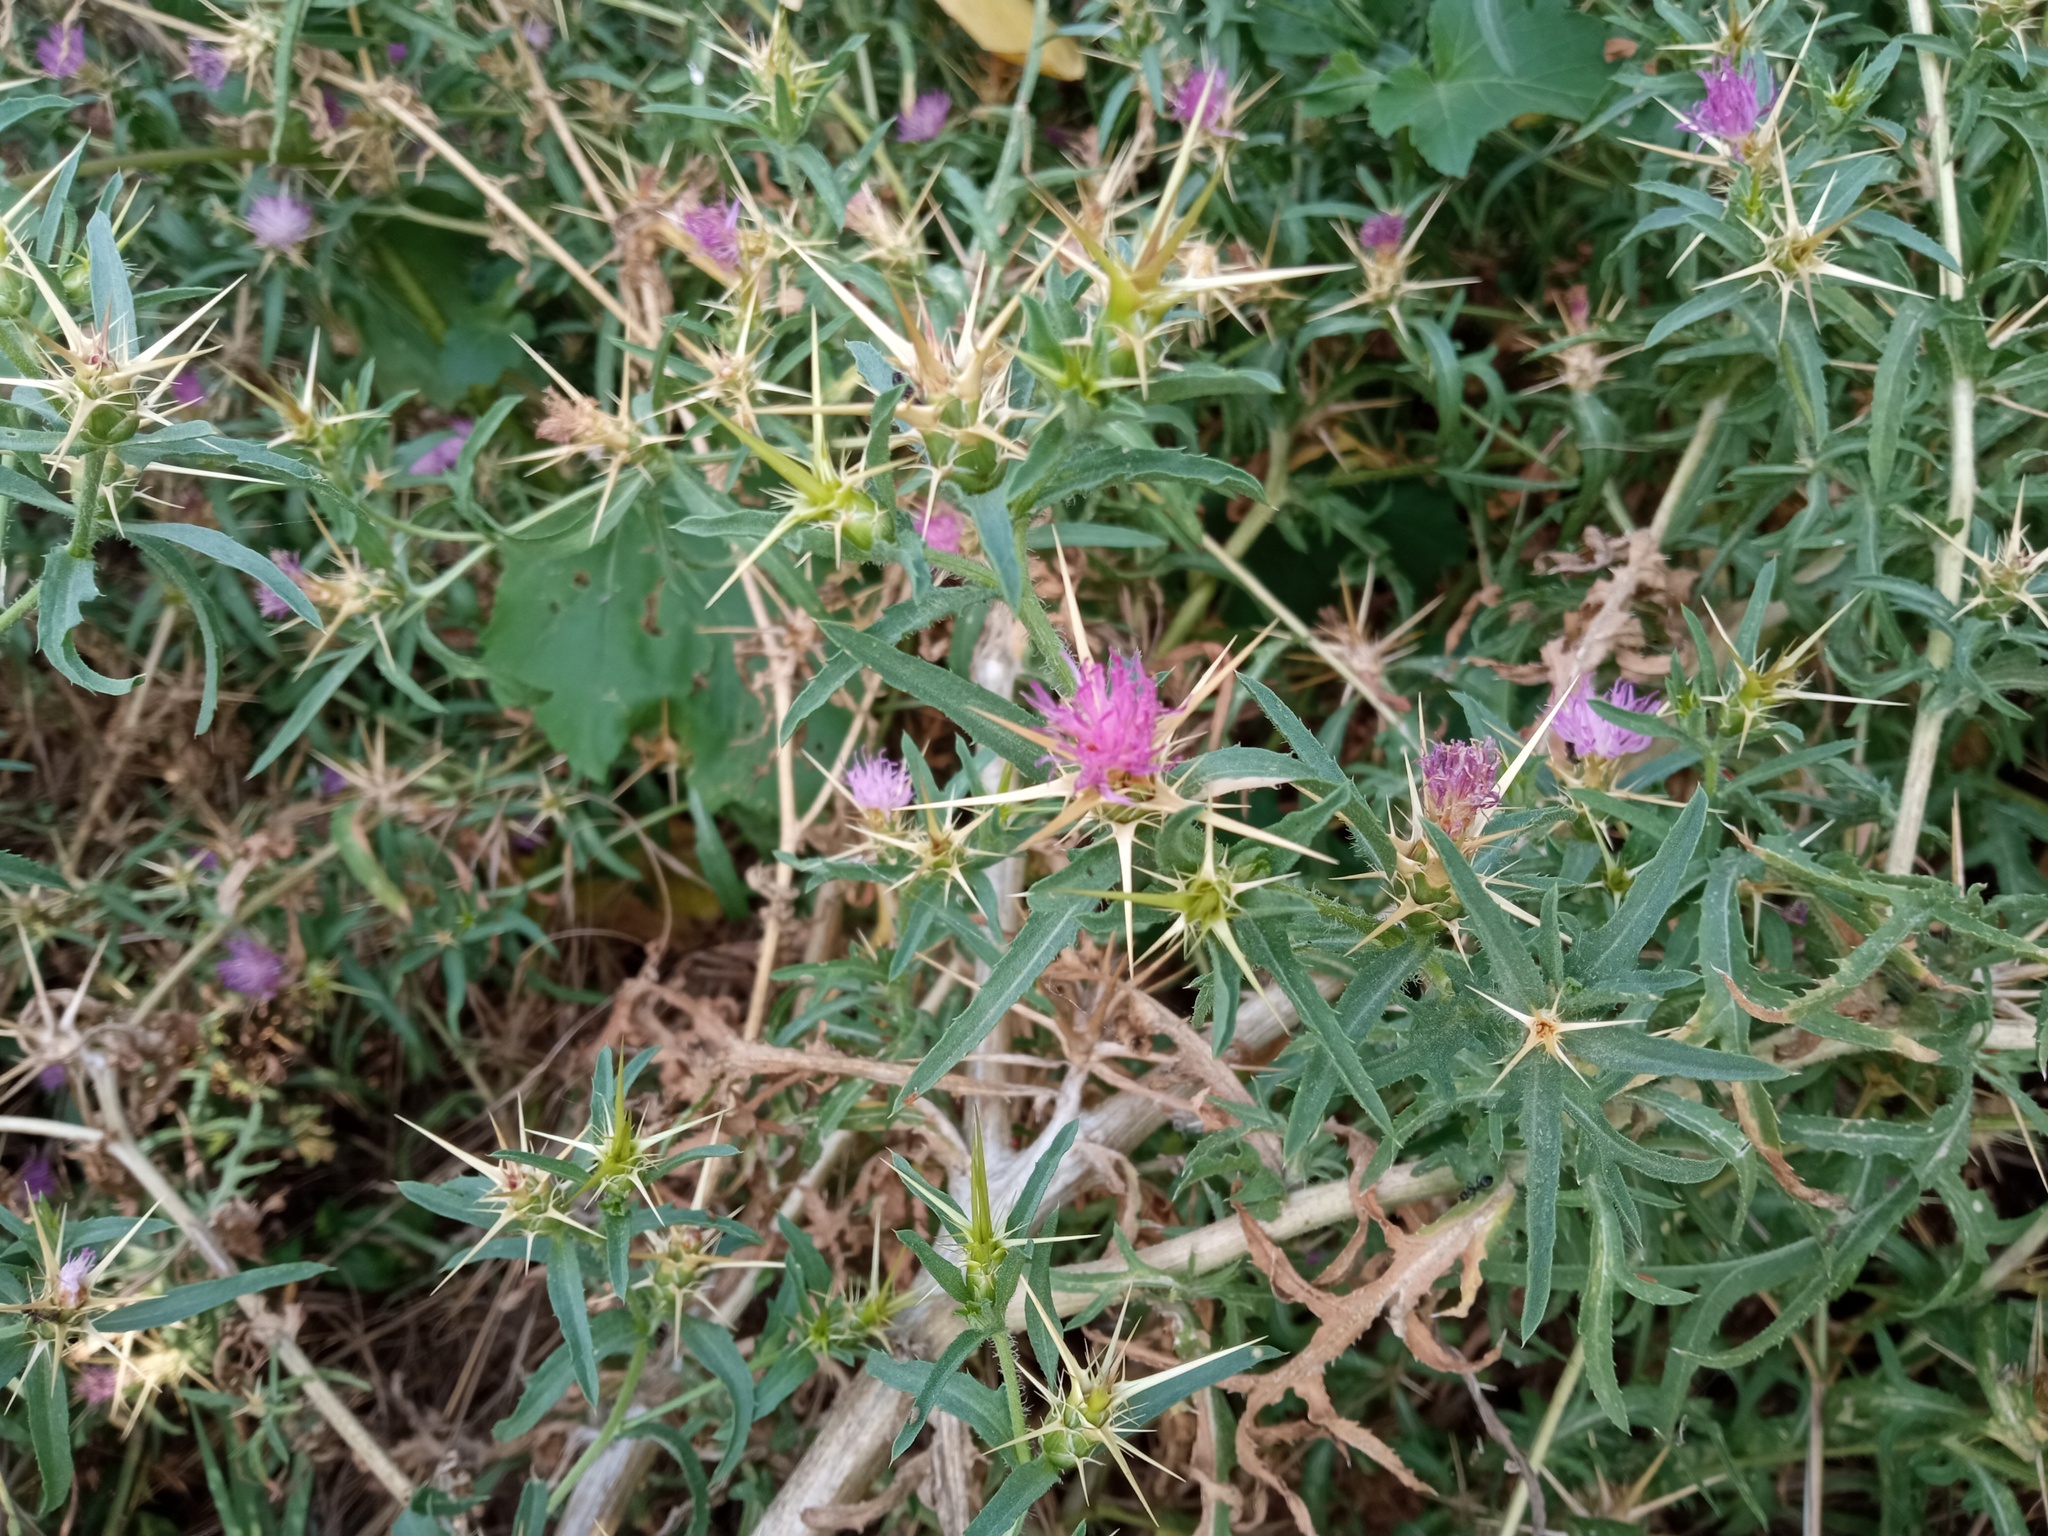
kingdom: Plantae
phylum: Tracheophyta
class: Magnoliopsida
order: Asterales
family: Asteraceae
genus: Centaurea
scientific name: Centaurea calcitrapa
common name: Red star-thistle
